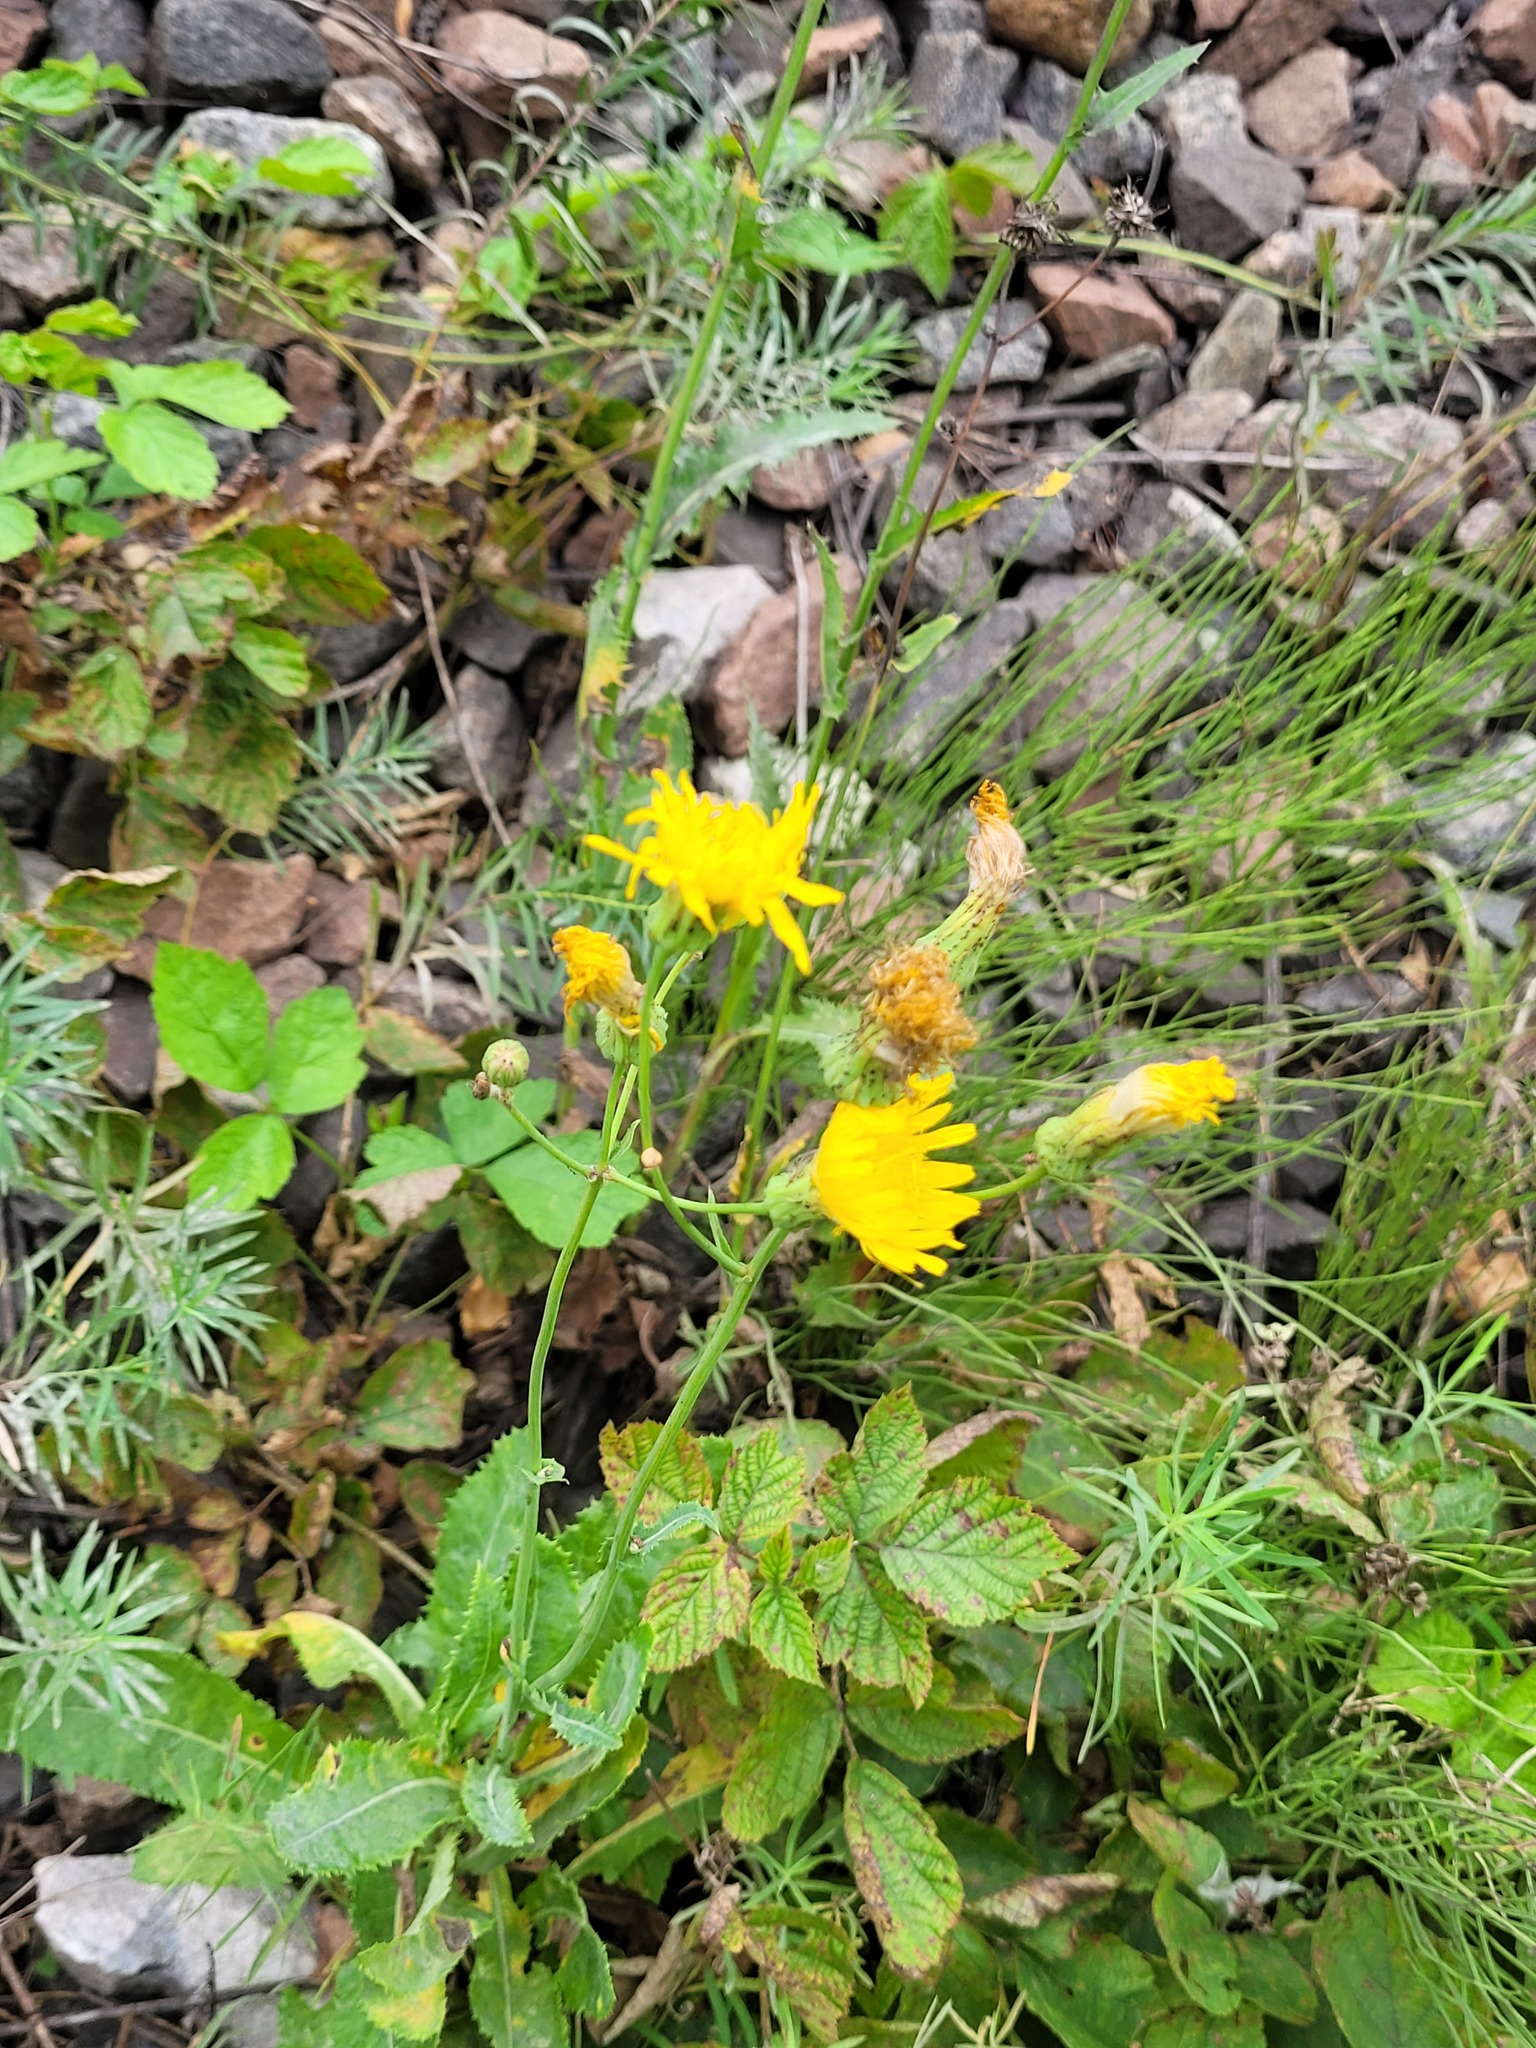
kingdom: Plantae
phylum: Tracheophyta
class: Magnoliopsida
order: Asterales
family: Asteraceae
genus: Sonchus
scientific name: Sonchus arvensis
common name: Perennial sow-thistle
